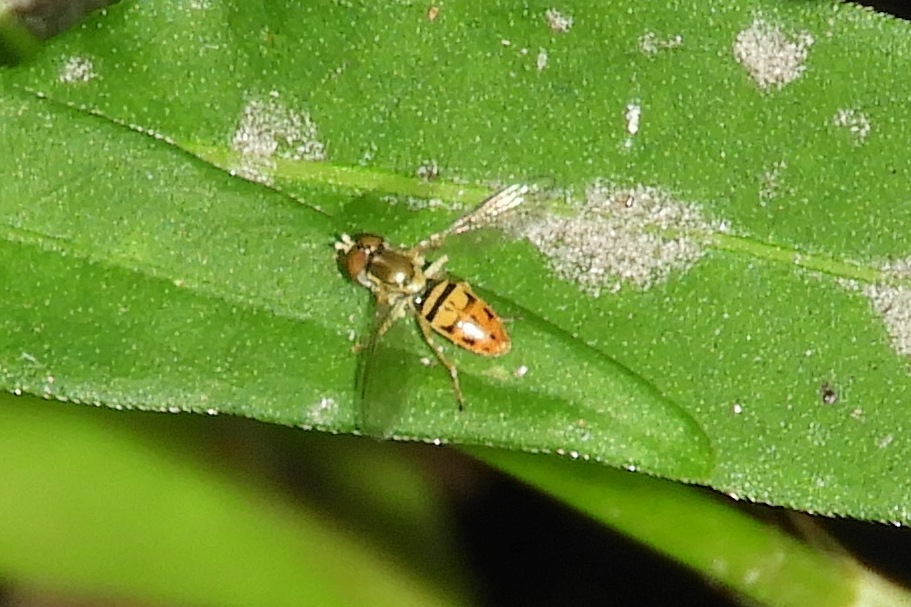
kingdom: Animalia
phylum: Arthropoda
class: Insecta
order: Diptera
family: Syrphidae
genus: Toxomerus
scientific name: Toxomerus marginatus
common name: Syrphid fly
